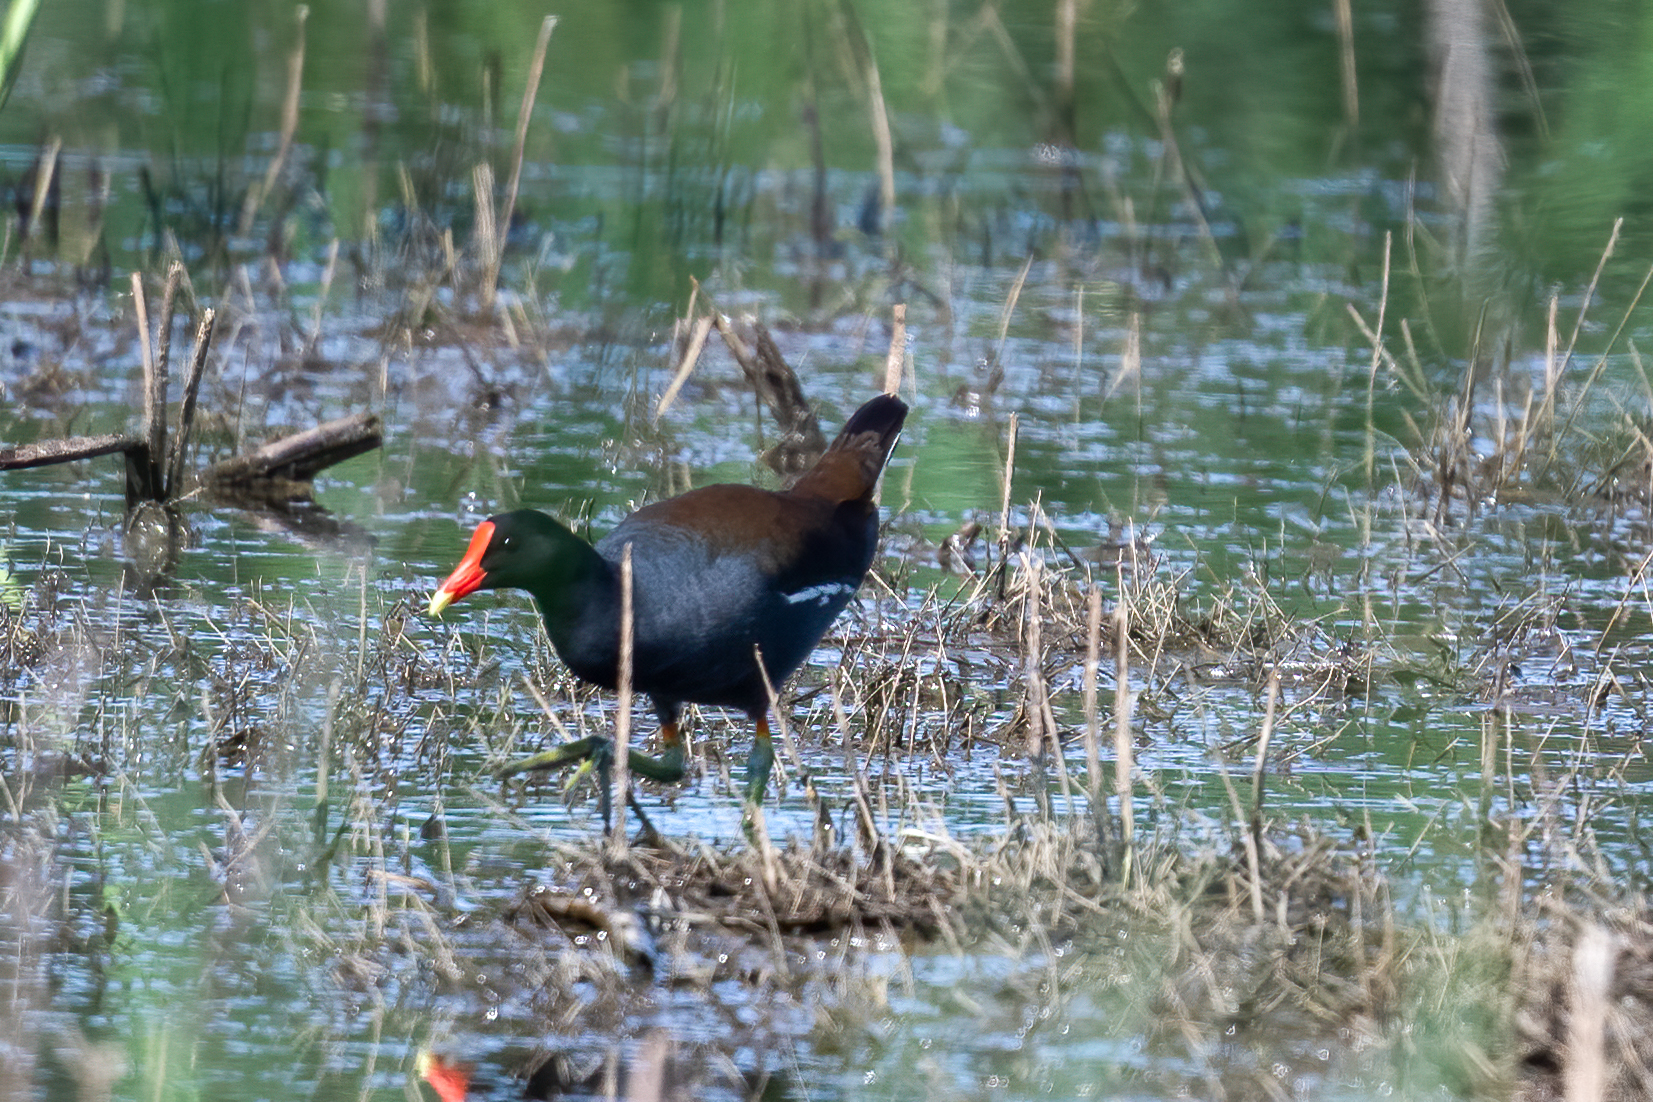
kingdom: Animalia
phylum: Chordata
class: Aves
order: Gruiformes
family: Rallidae
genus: Gallinula
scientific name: Gallinula chloropus
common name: Common moorhen
